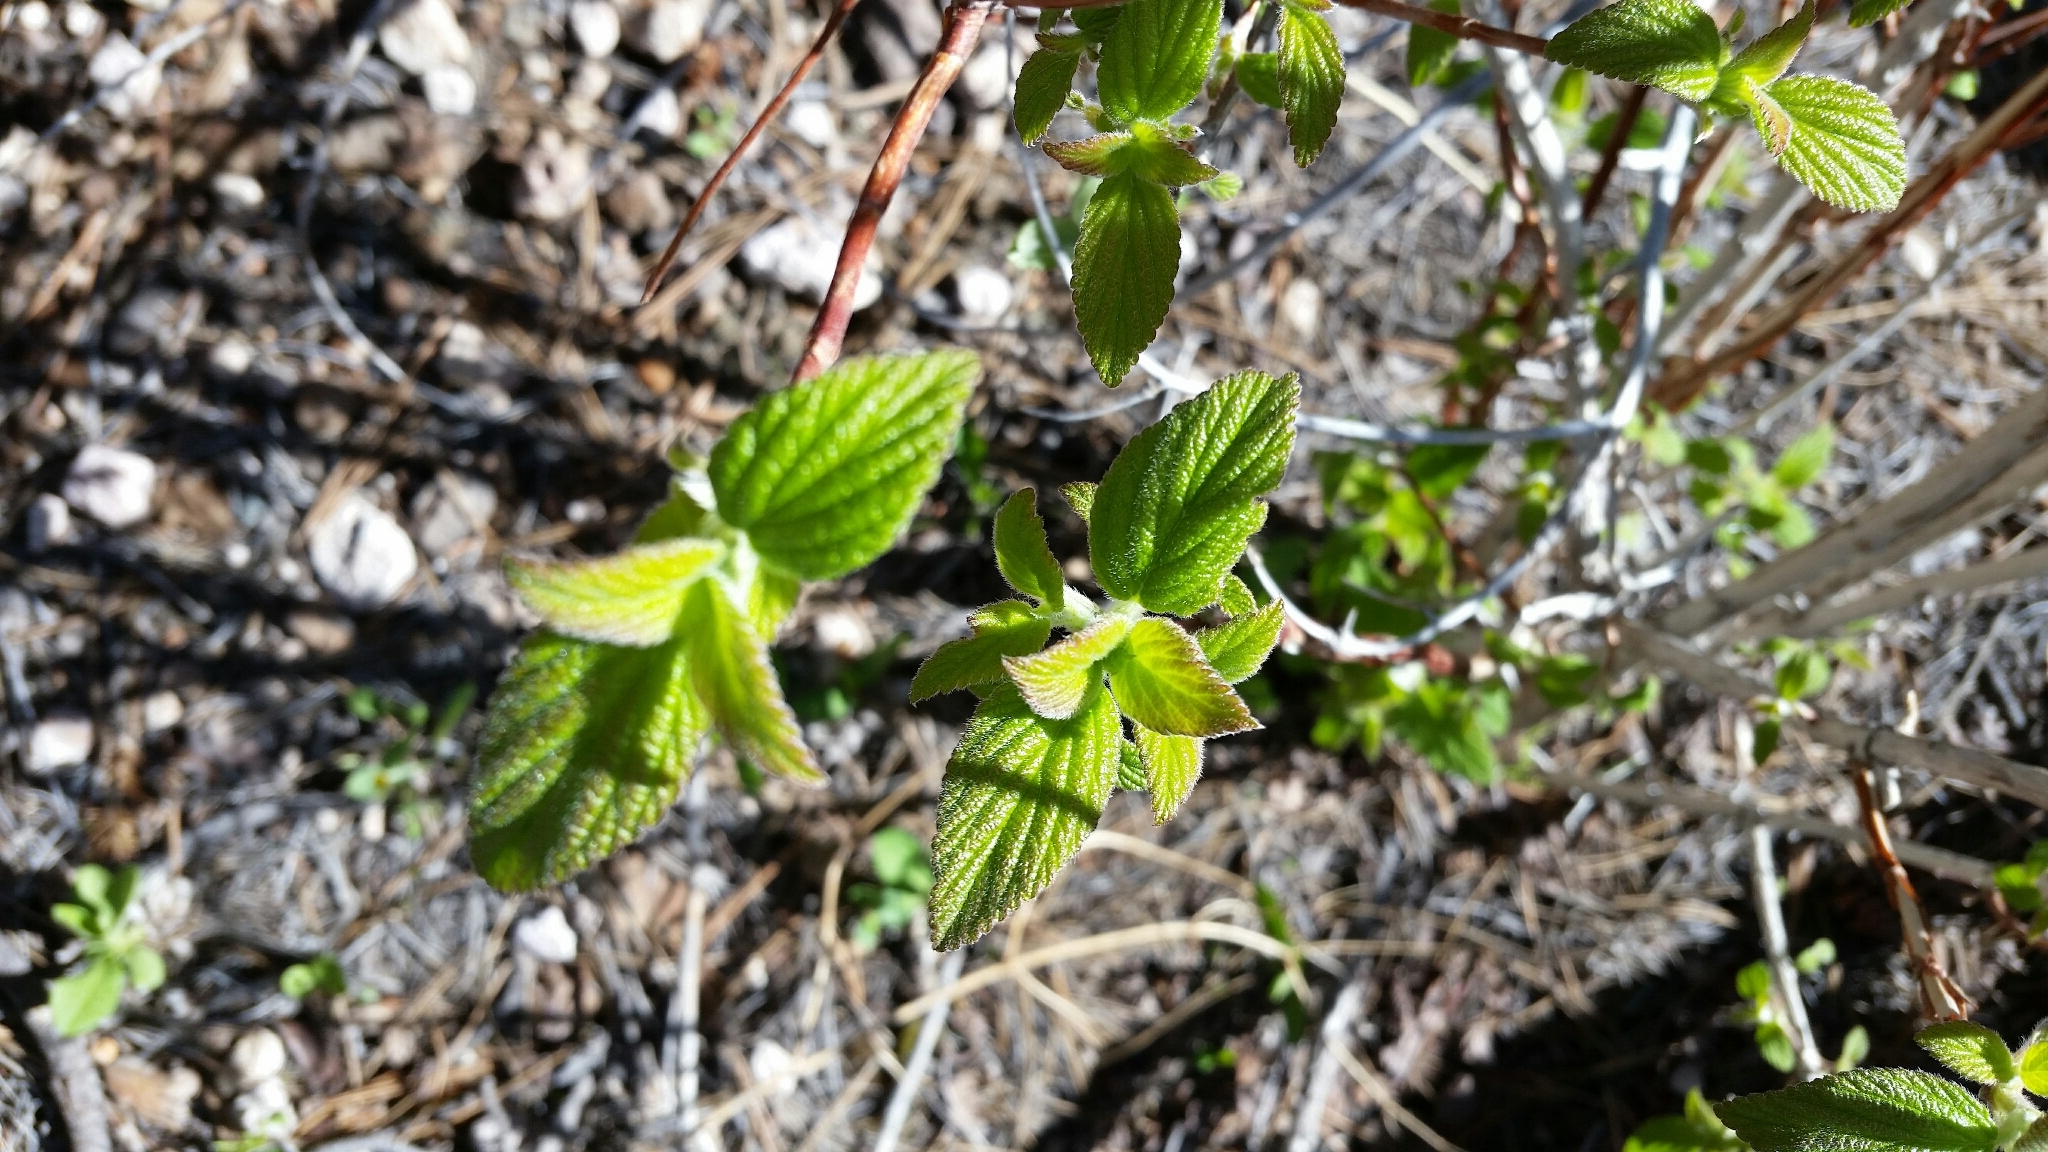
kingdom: Plantae
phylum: Tracheophyta
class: Magnoliopsida
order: Cornales
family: Hydrangeaceae
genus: Jamesia
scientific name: Jamesia americana
